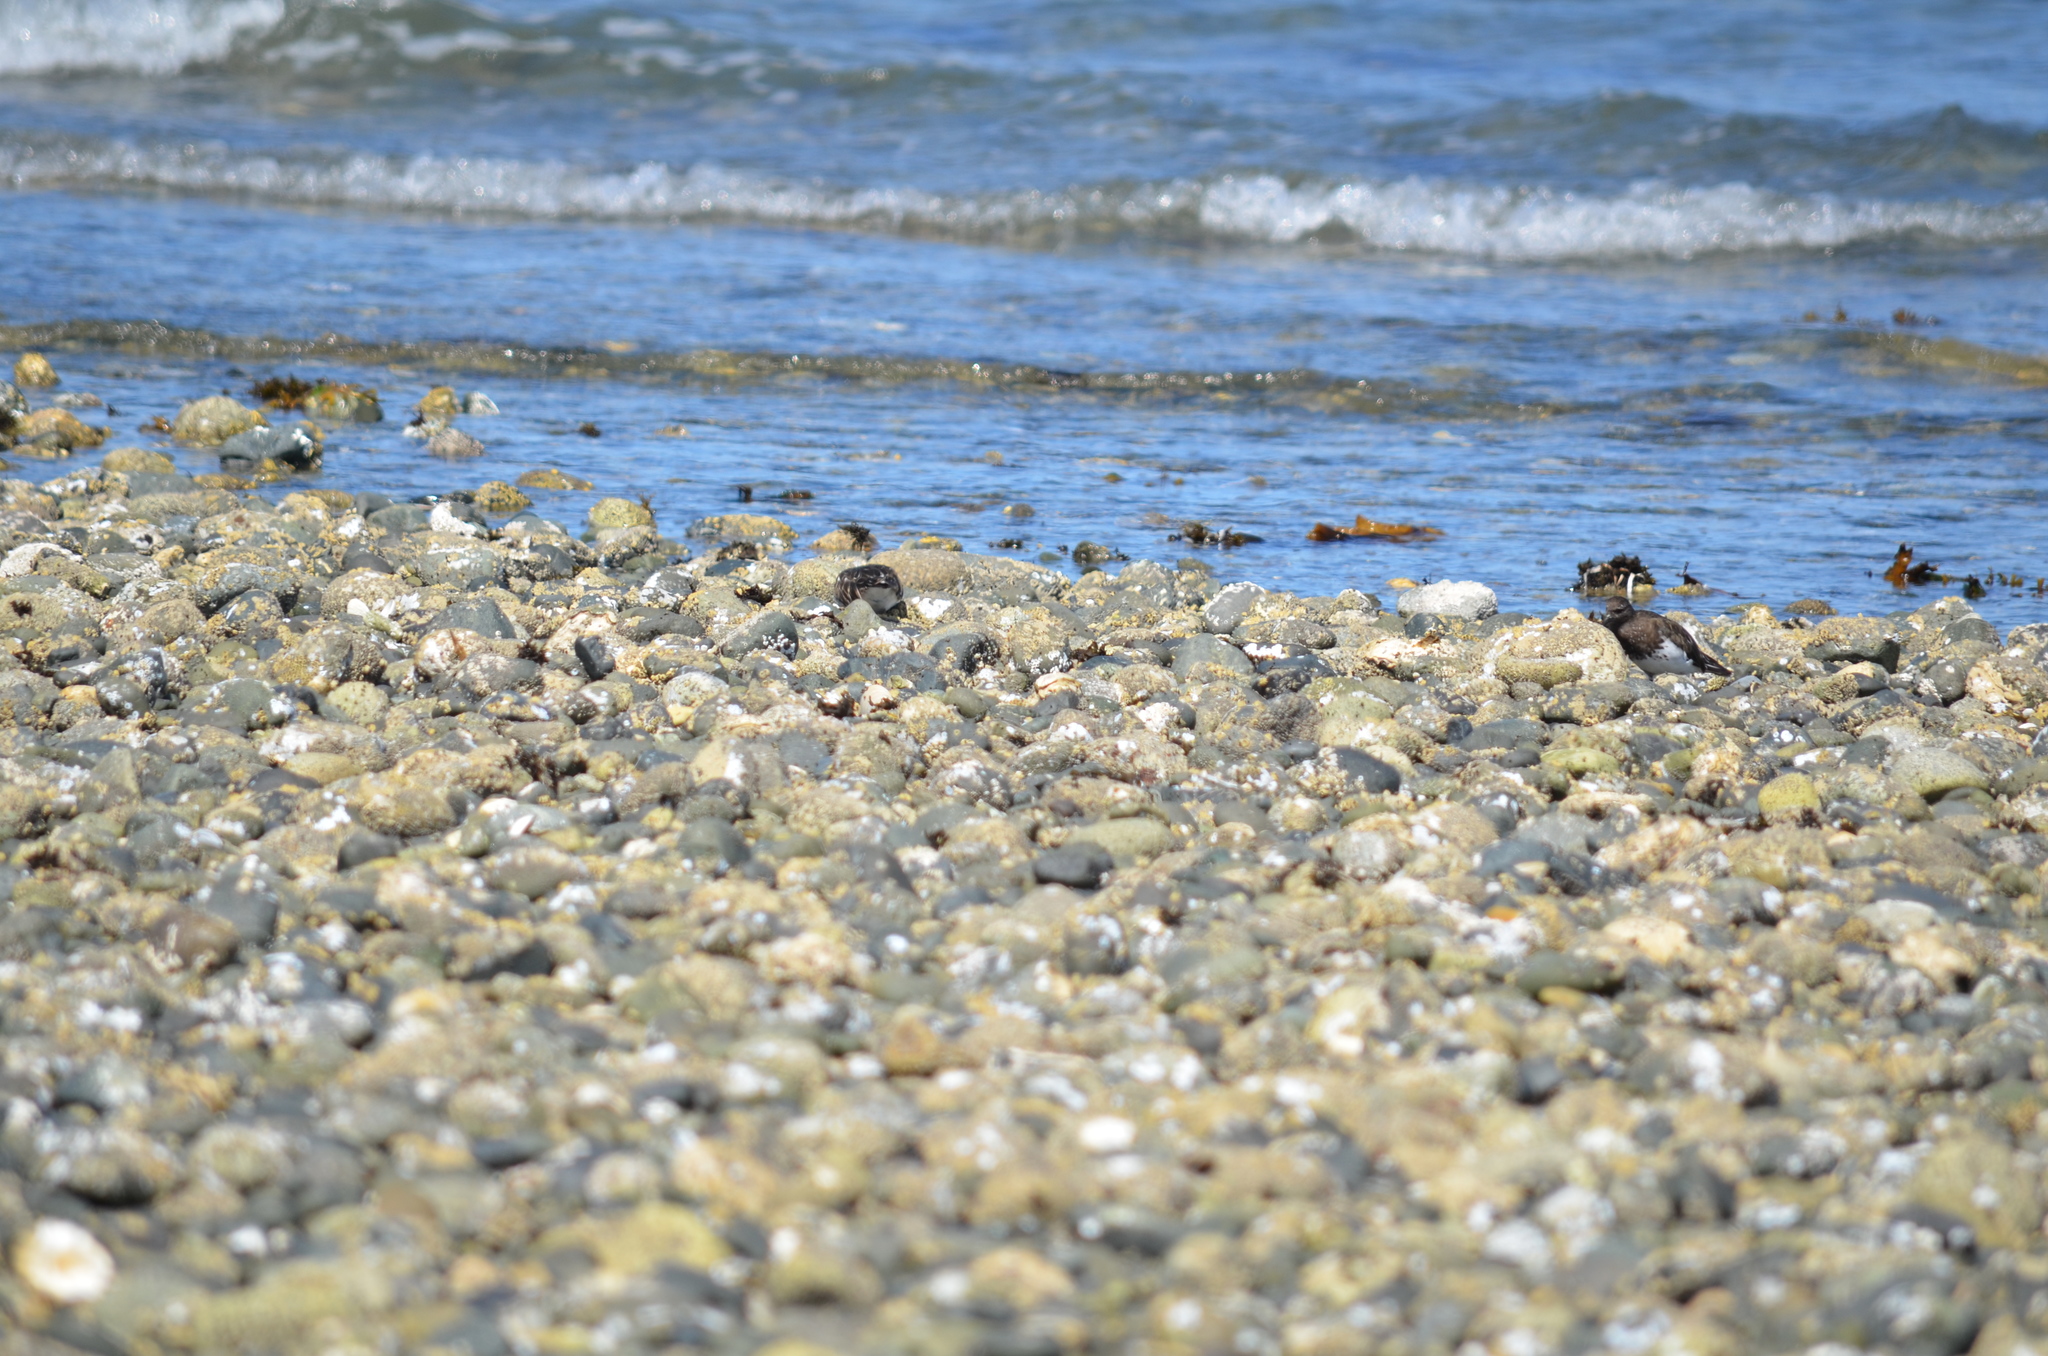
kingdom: Animalia
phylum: Chordata
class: Aves
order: Charadriiformes
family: Scolopacidae
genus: Arenaria
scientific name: Arenaria melanocephala
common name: Black turnstone
